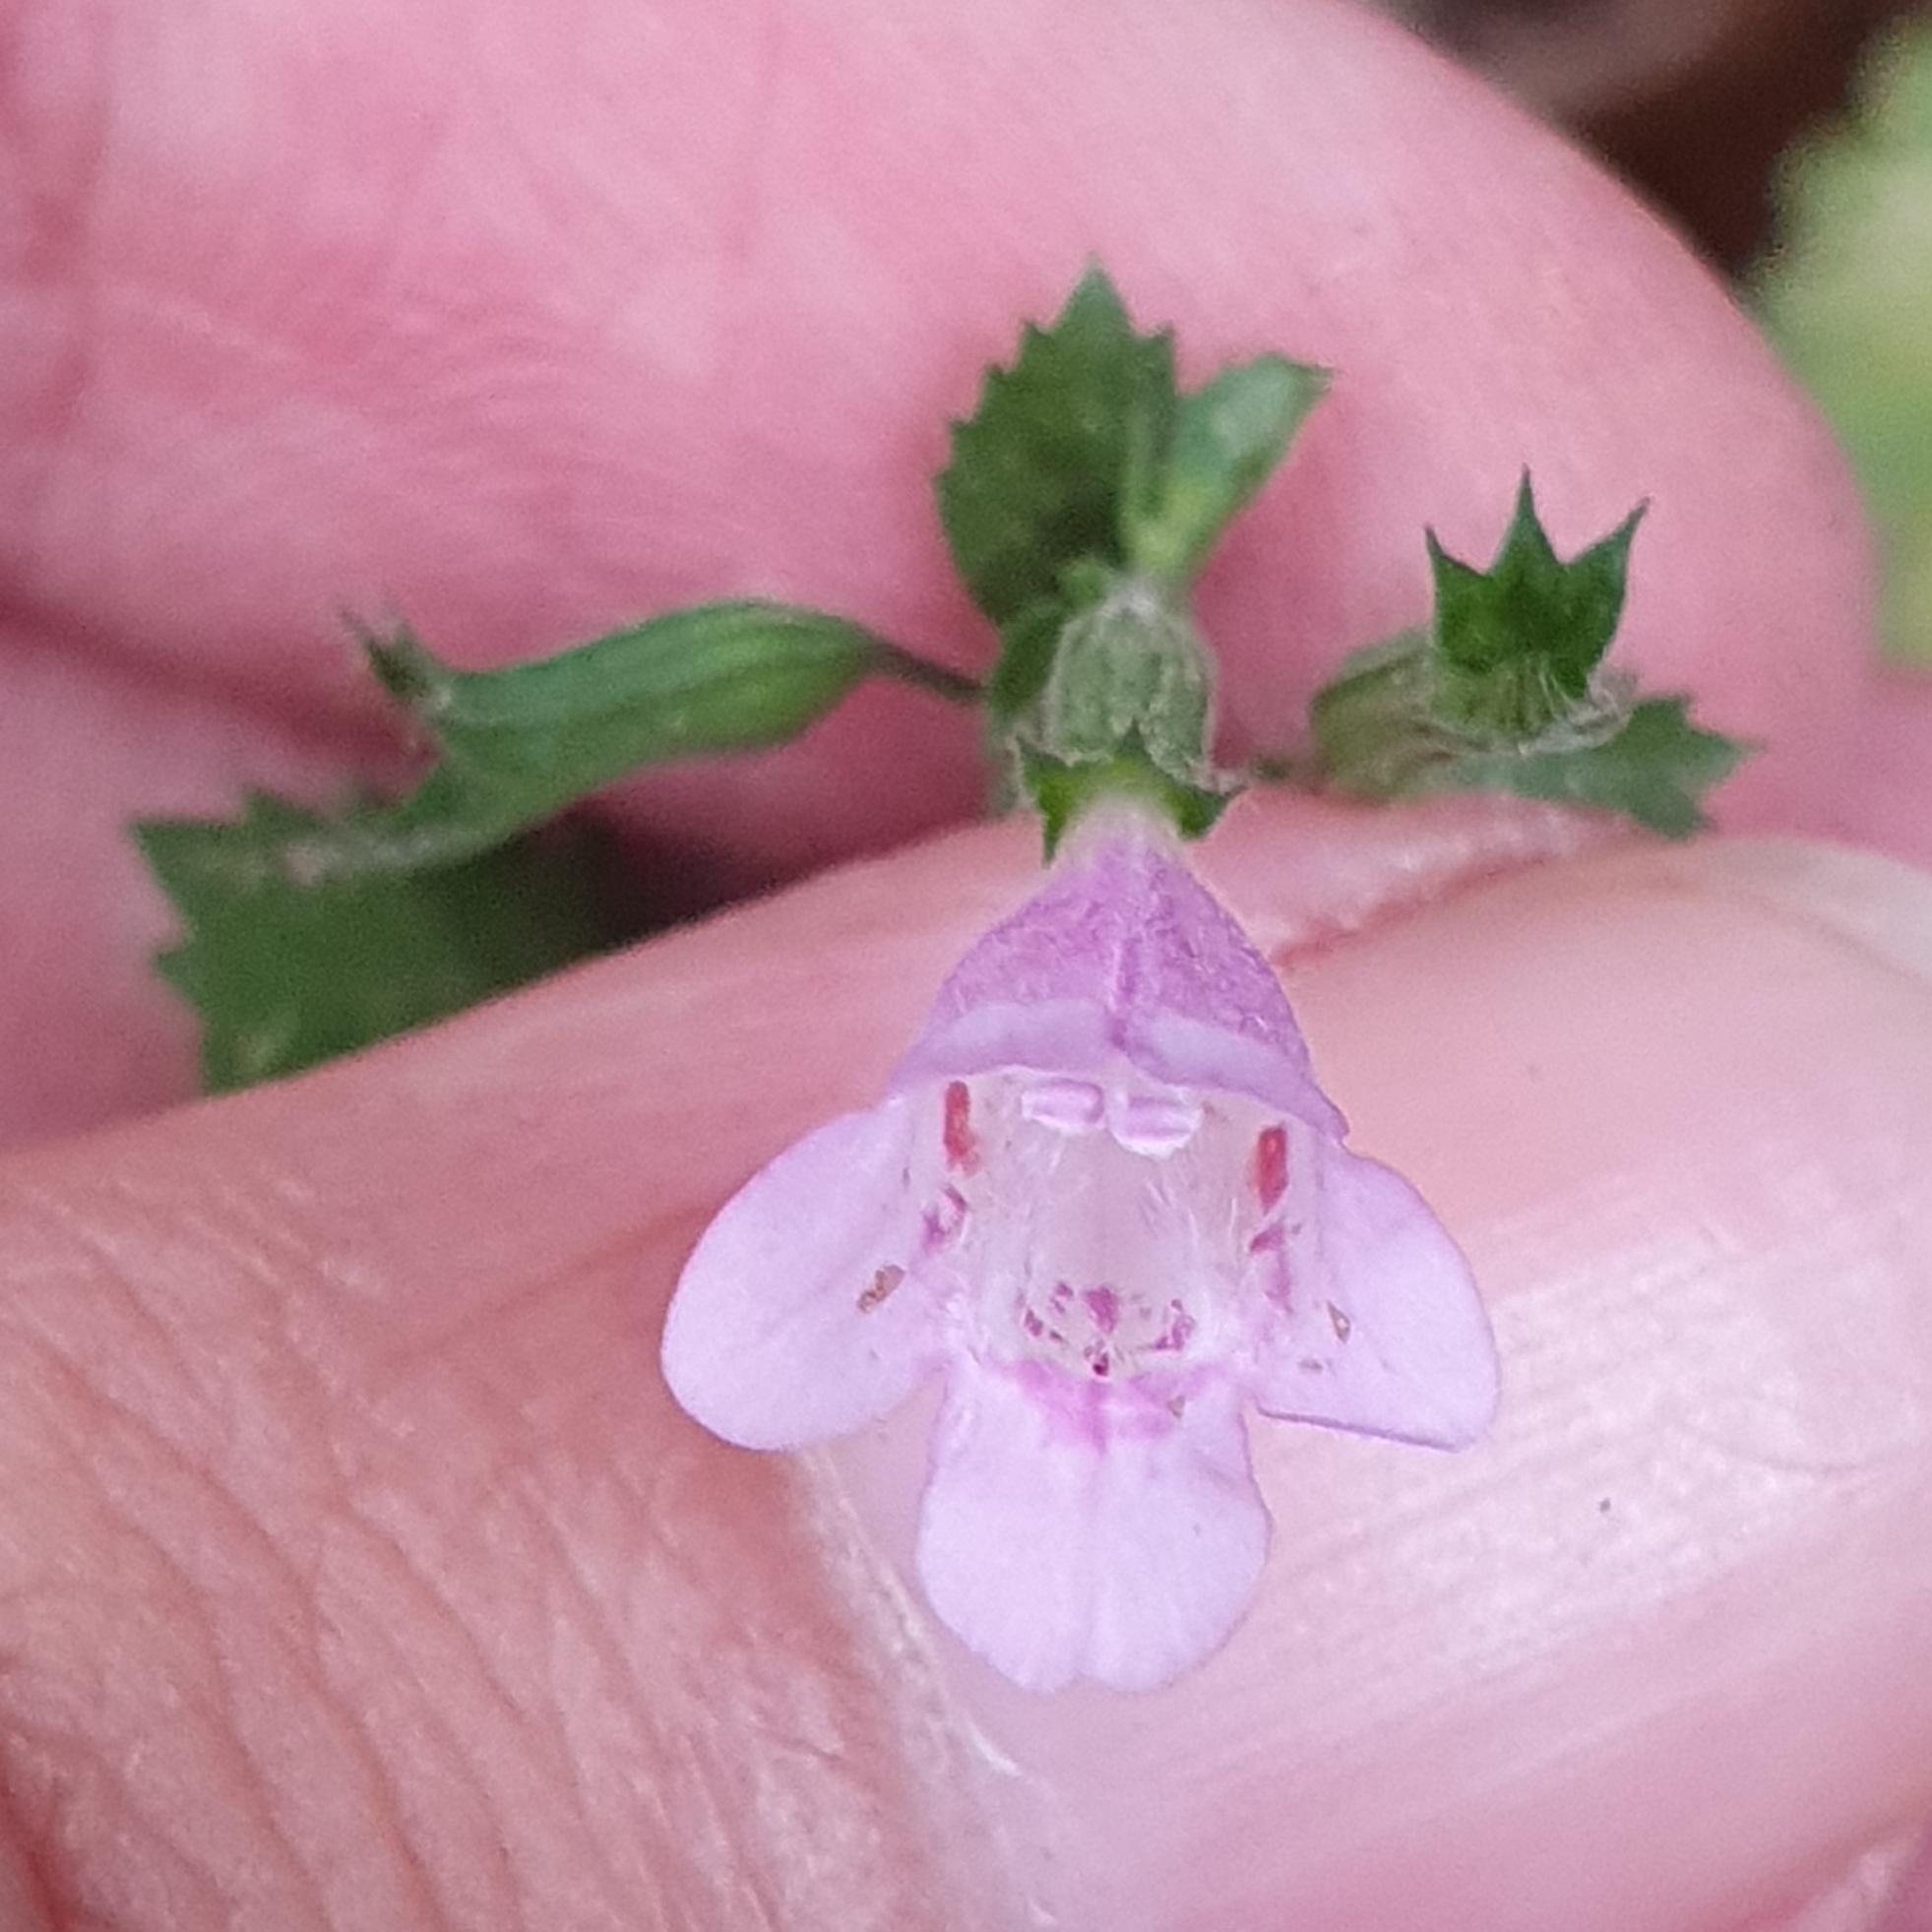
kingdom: Plantae
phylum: Tracheophyta
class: Magnoliopsida
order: Lamiales
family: Lamiaceae
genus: Clinopodium
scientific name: Clinopodium grandiflorum
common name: Greater calamint
